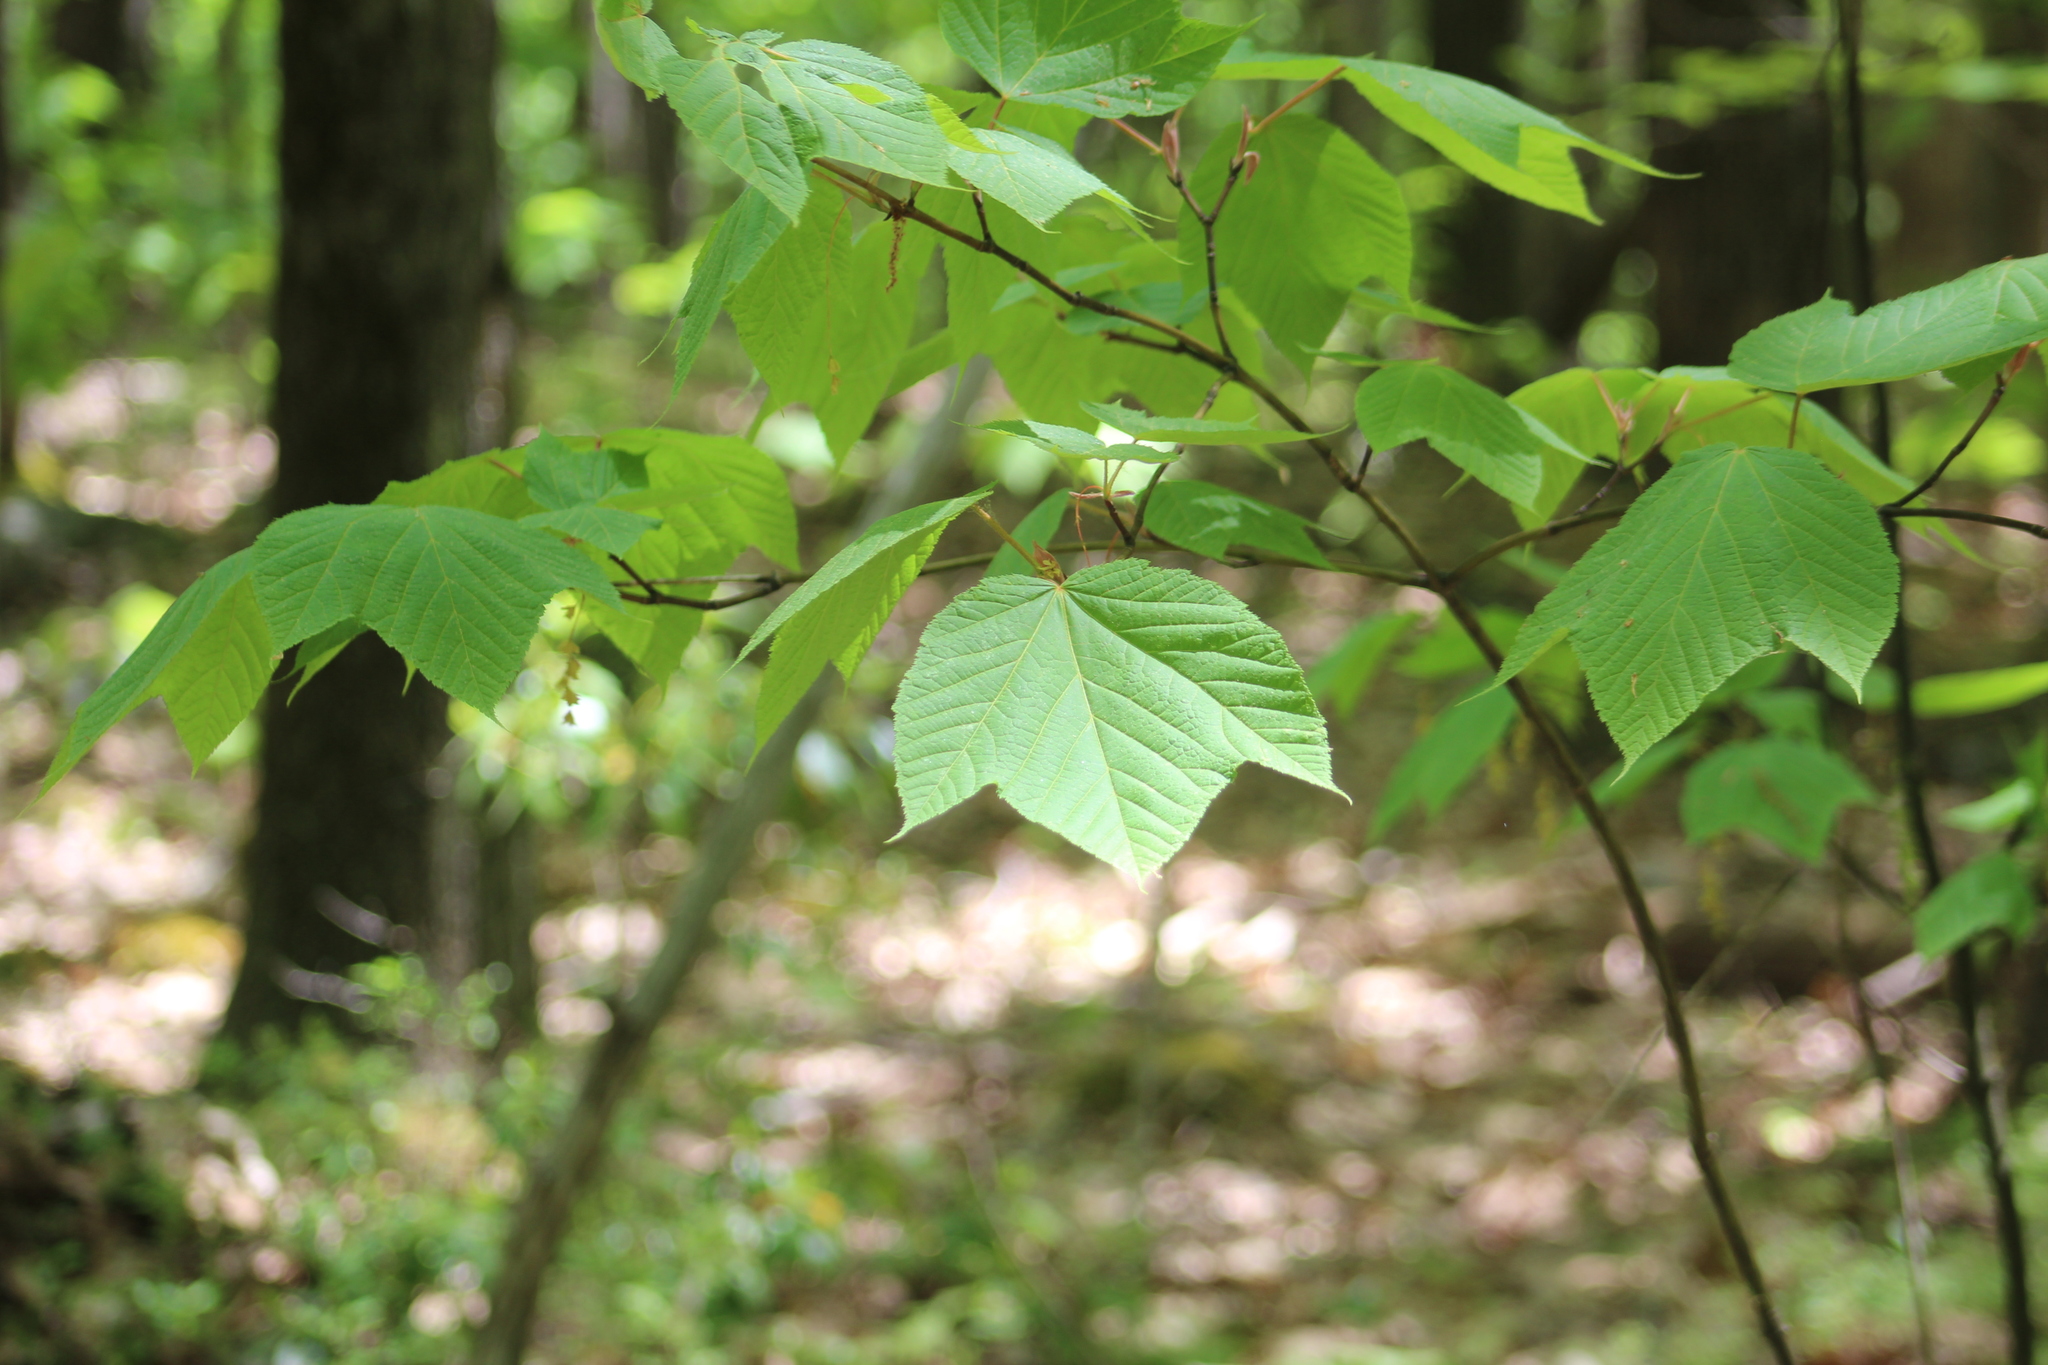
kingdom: Plantae
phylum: Tracheophyta
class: Magnoliopsida
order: Sapindales
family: Sapindaceae
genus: Acer
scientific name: Acer pensylvanicum
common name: Moosewood
